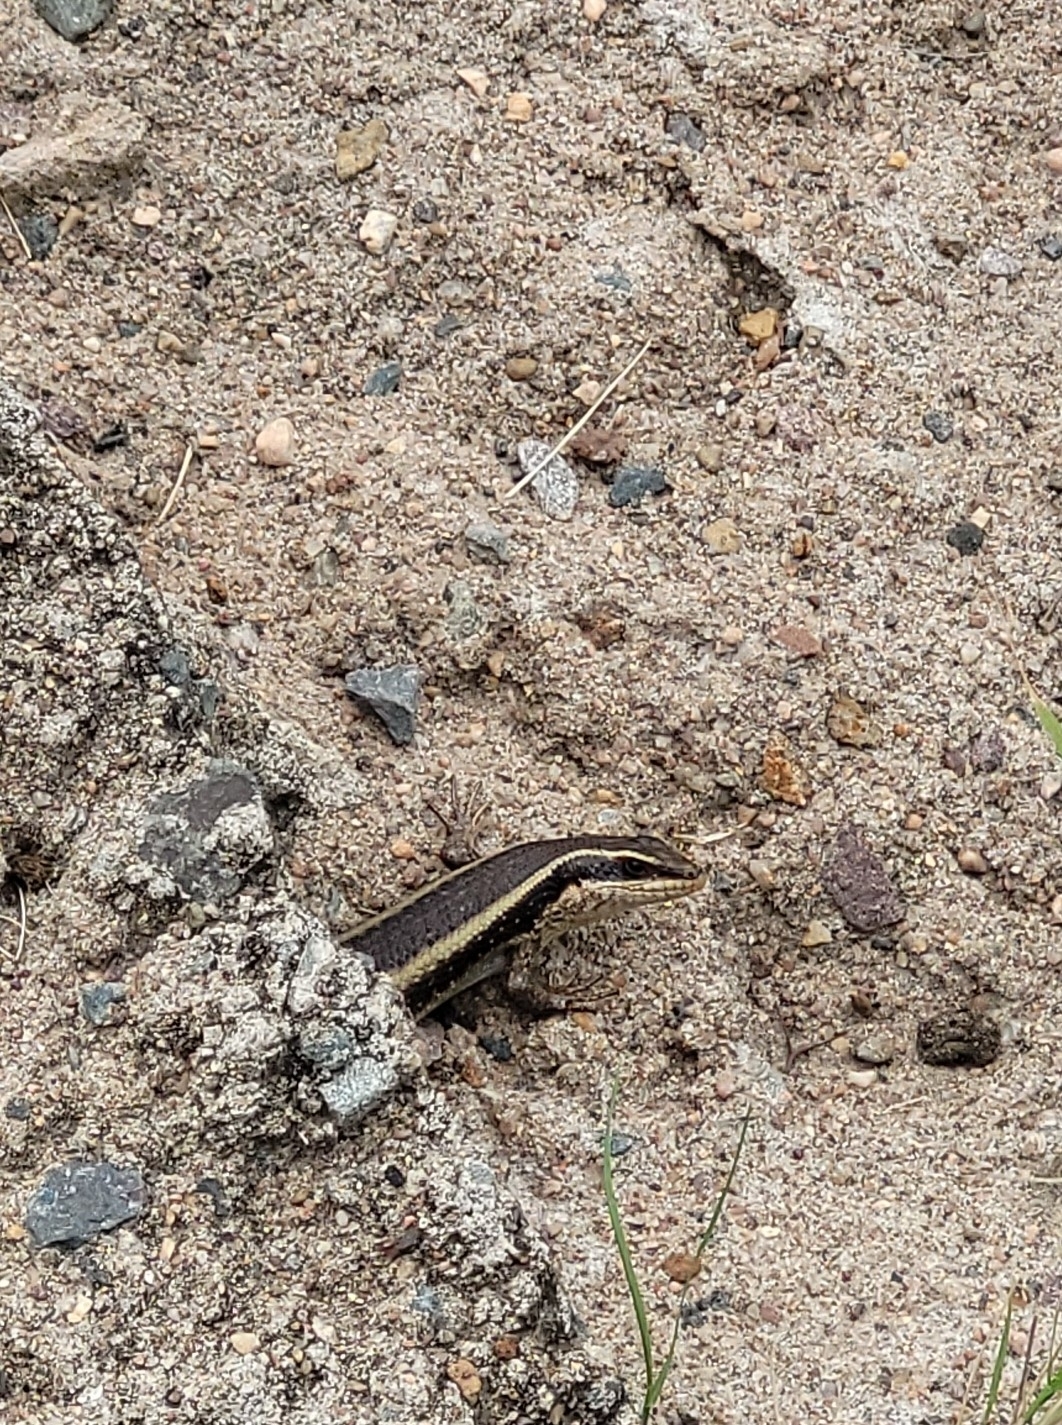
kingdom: Animalia
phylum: Chordata
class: Squamata
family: Scincidae
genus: Trachylepis
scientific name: Trachylepis striata
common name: African striped mabuya
